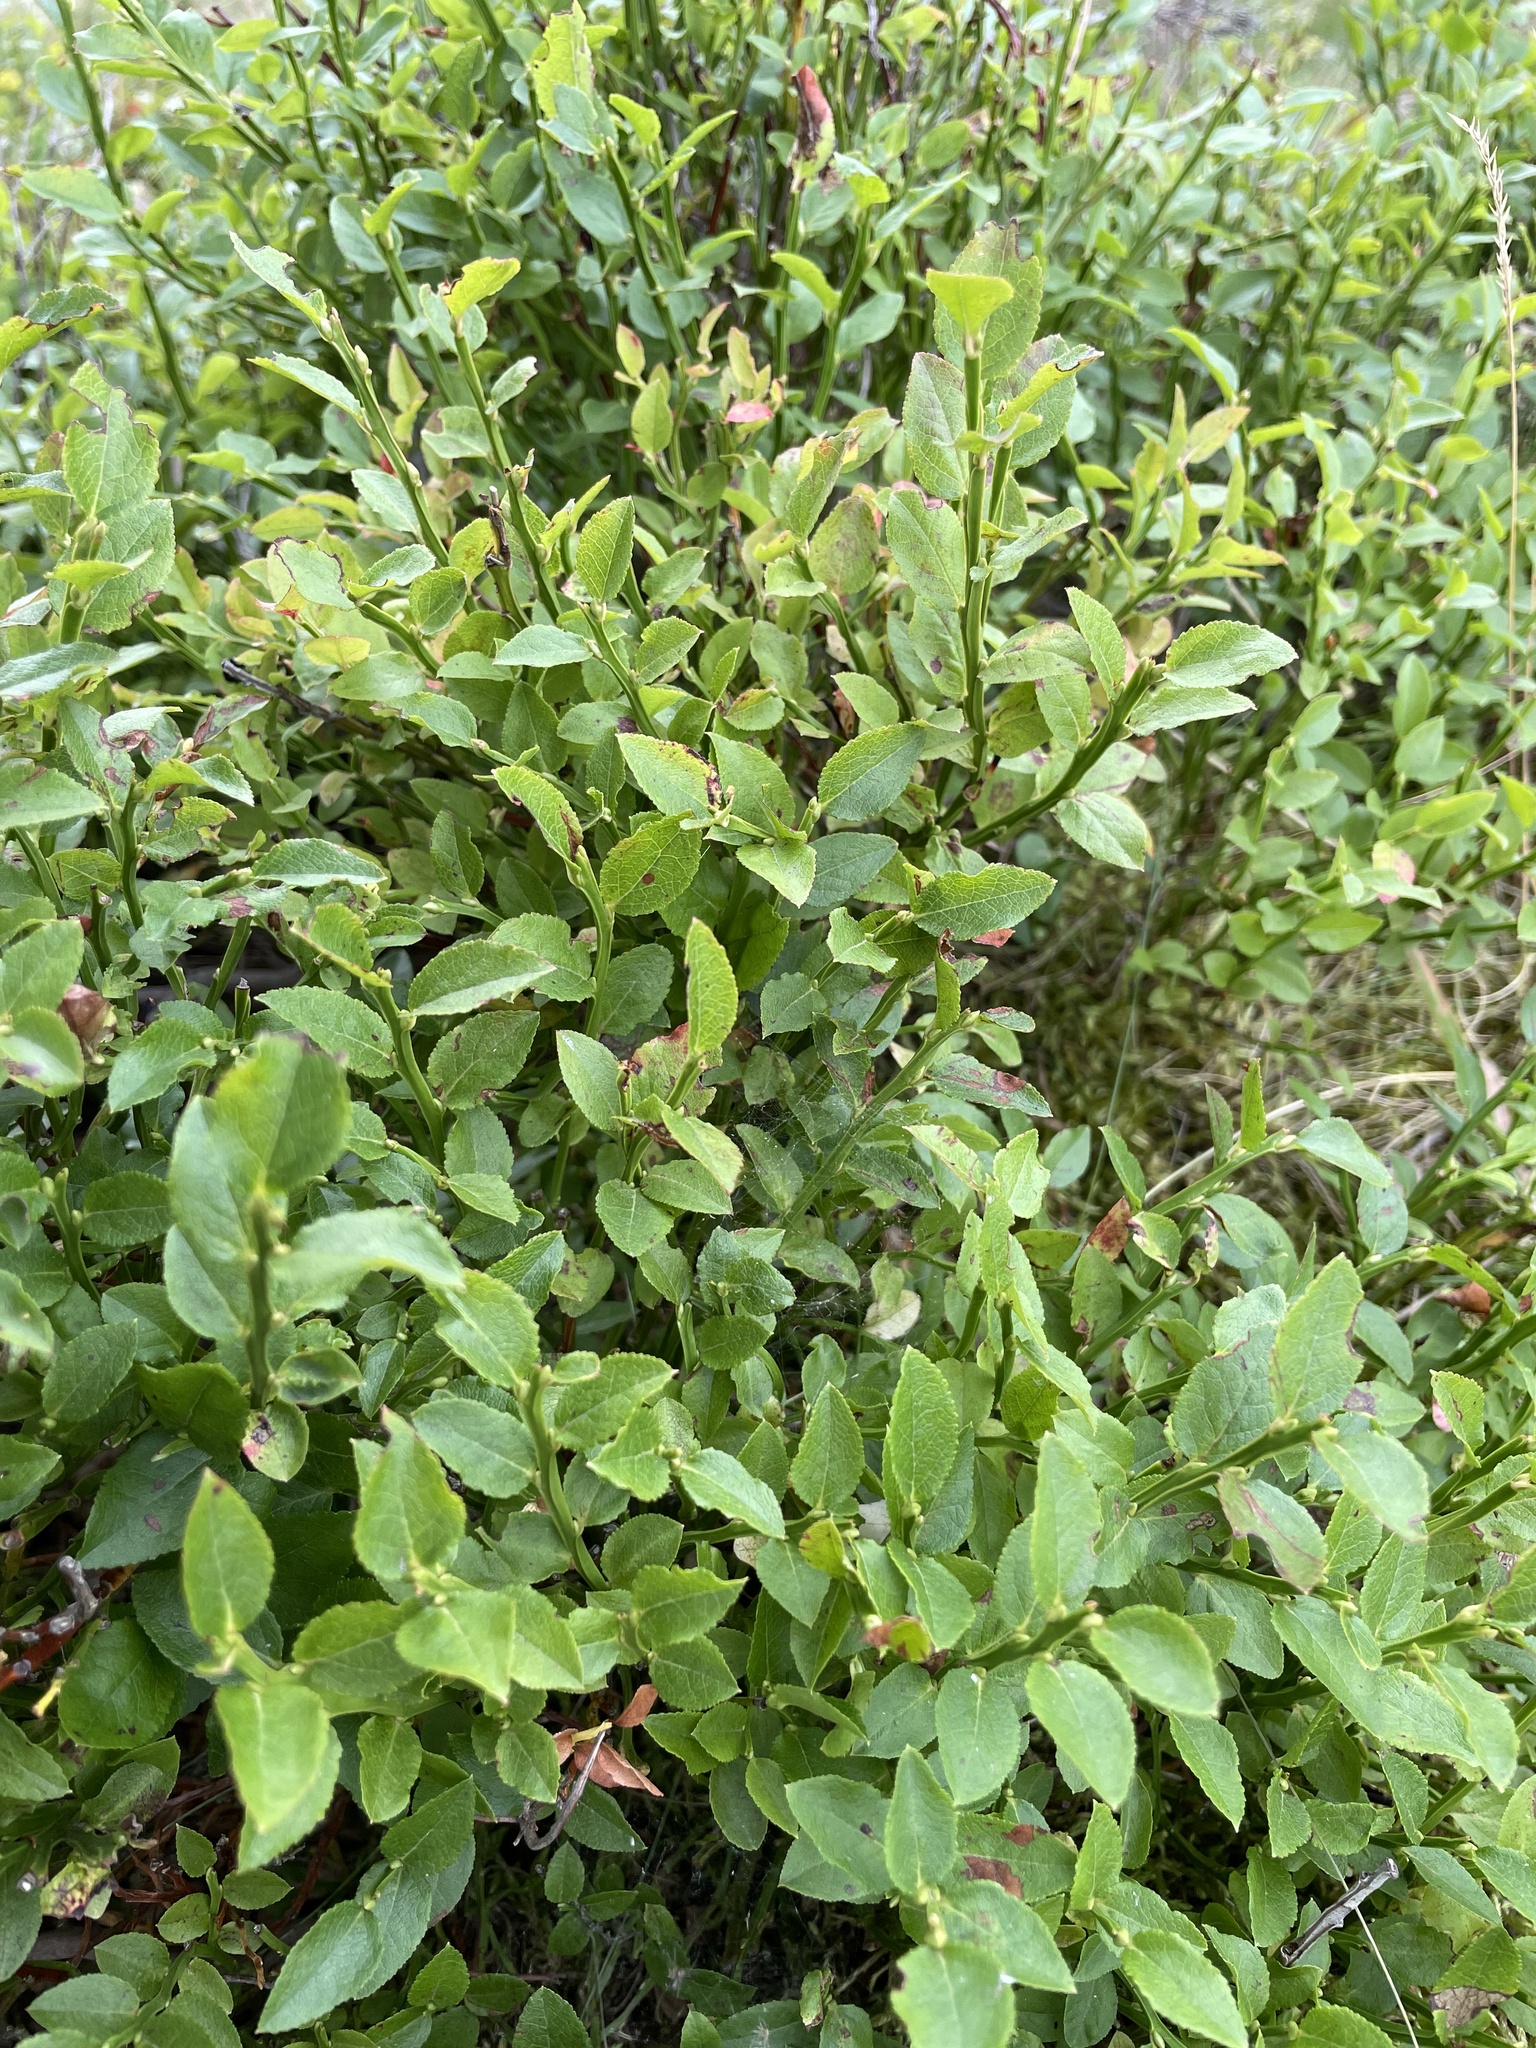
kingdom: Plantae
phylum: Tracheophyta
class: Magnoliopsida
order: Ericales
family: Ericaceae
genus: Vaccinium
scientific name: Vaccinium myrtillus
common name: Bilberry
